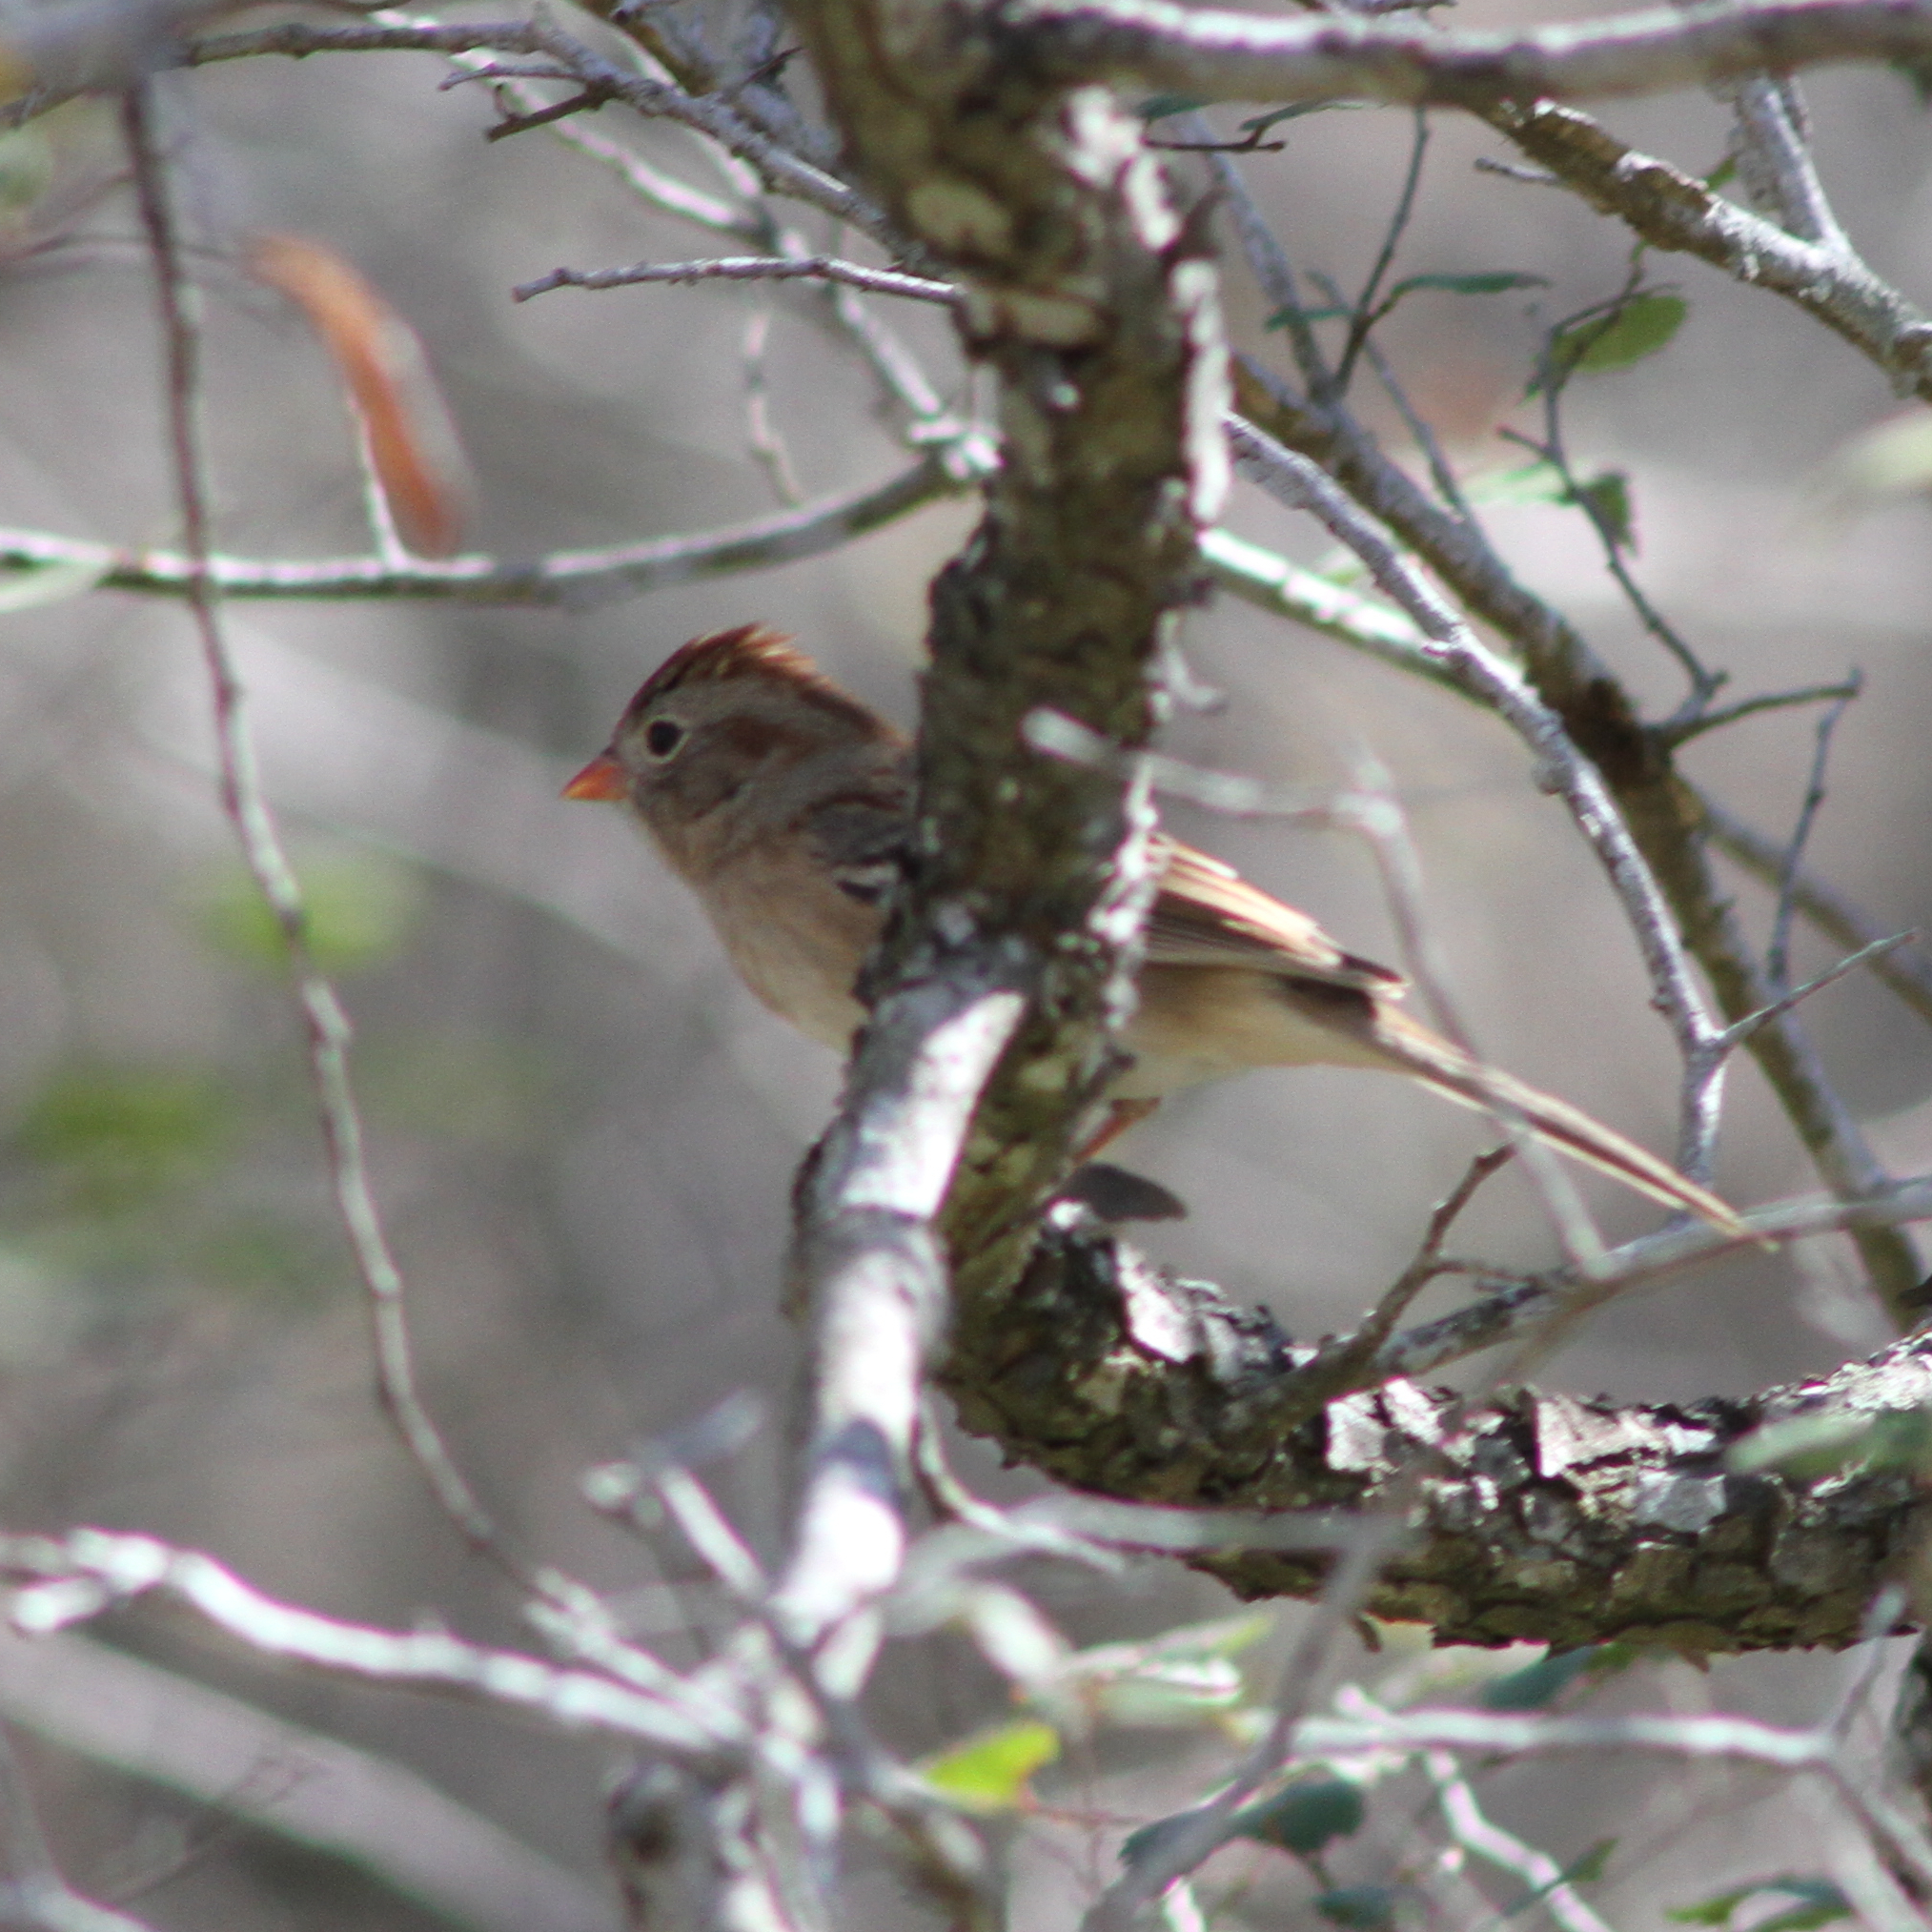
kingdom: Animalia
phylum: Chordata
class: Aves
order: Passeriformes
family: Passerellidae
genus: Spizella
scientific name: Spizella pusilla
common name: Field sparrow
